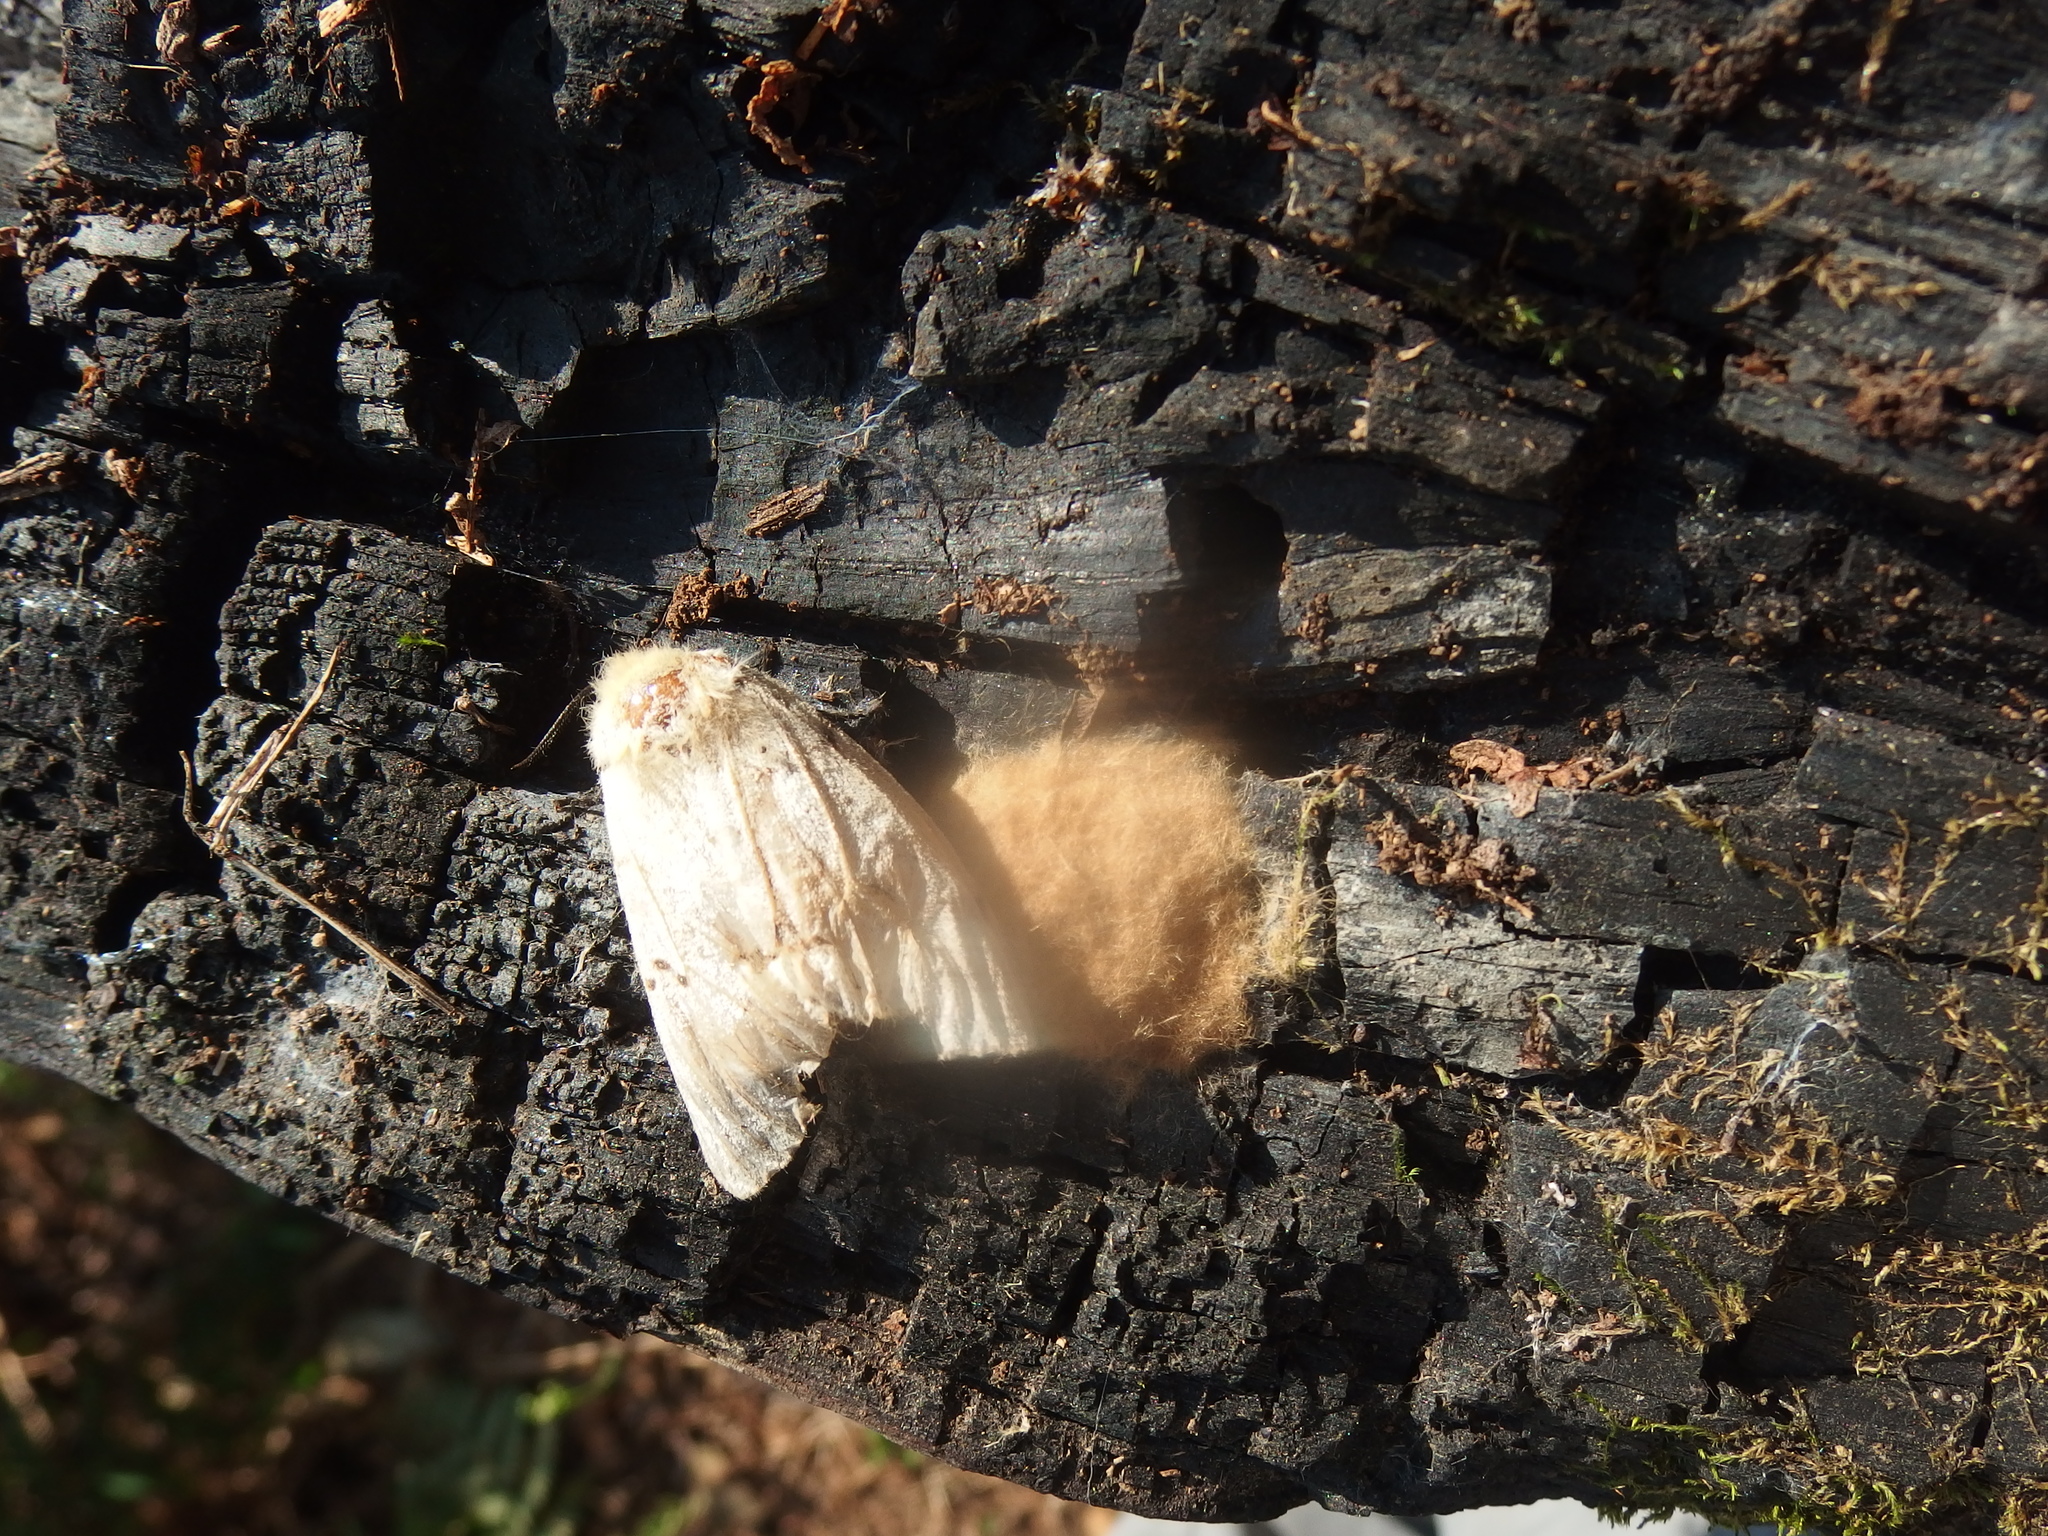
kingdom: Animalia
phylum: Arthropoda
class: Insecta
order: Lepidoptera
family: Erebidae
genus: Lymantria
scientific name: Lymantria dispar
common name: Gypsy moth
